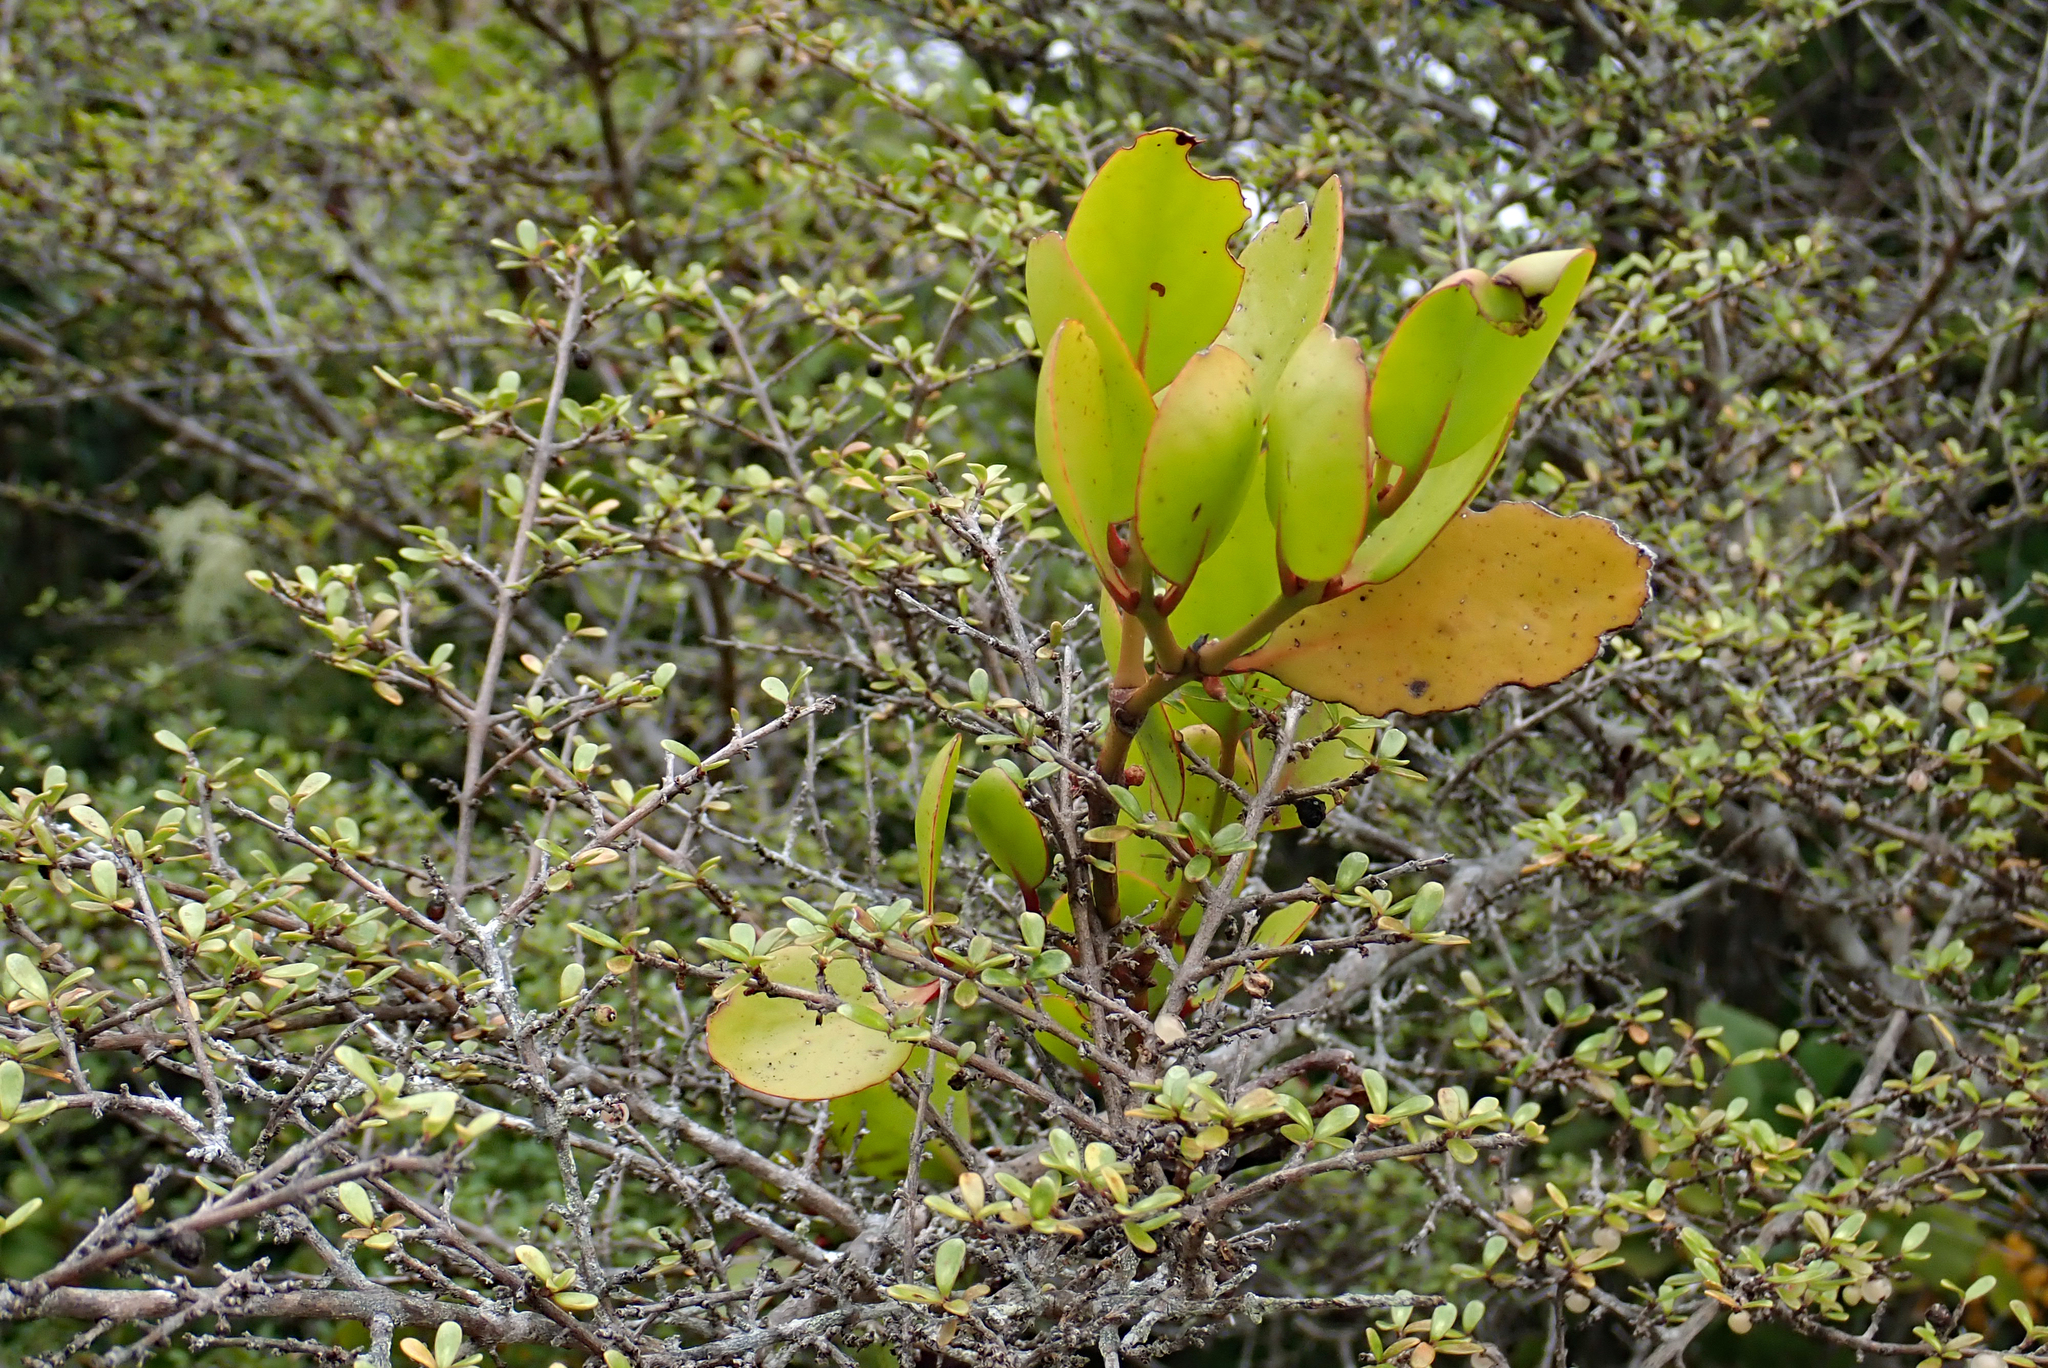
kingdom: Plantae
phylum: Tracheophyta
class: Magnoliopsida
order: Santalales
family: Loranthaceae
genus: Ileostylus
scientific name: Ileostylus micranthus
